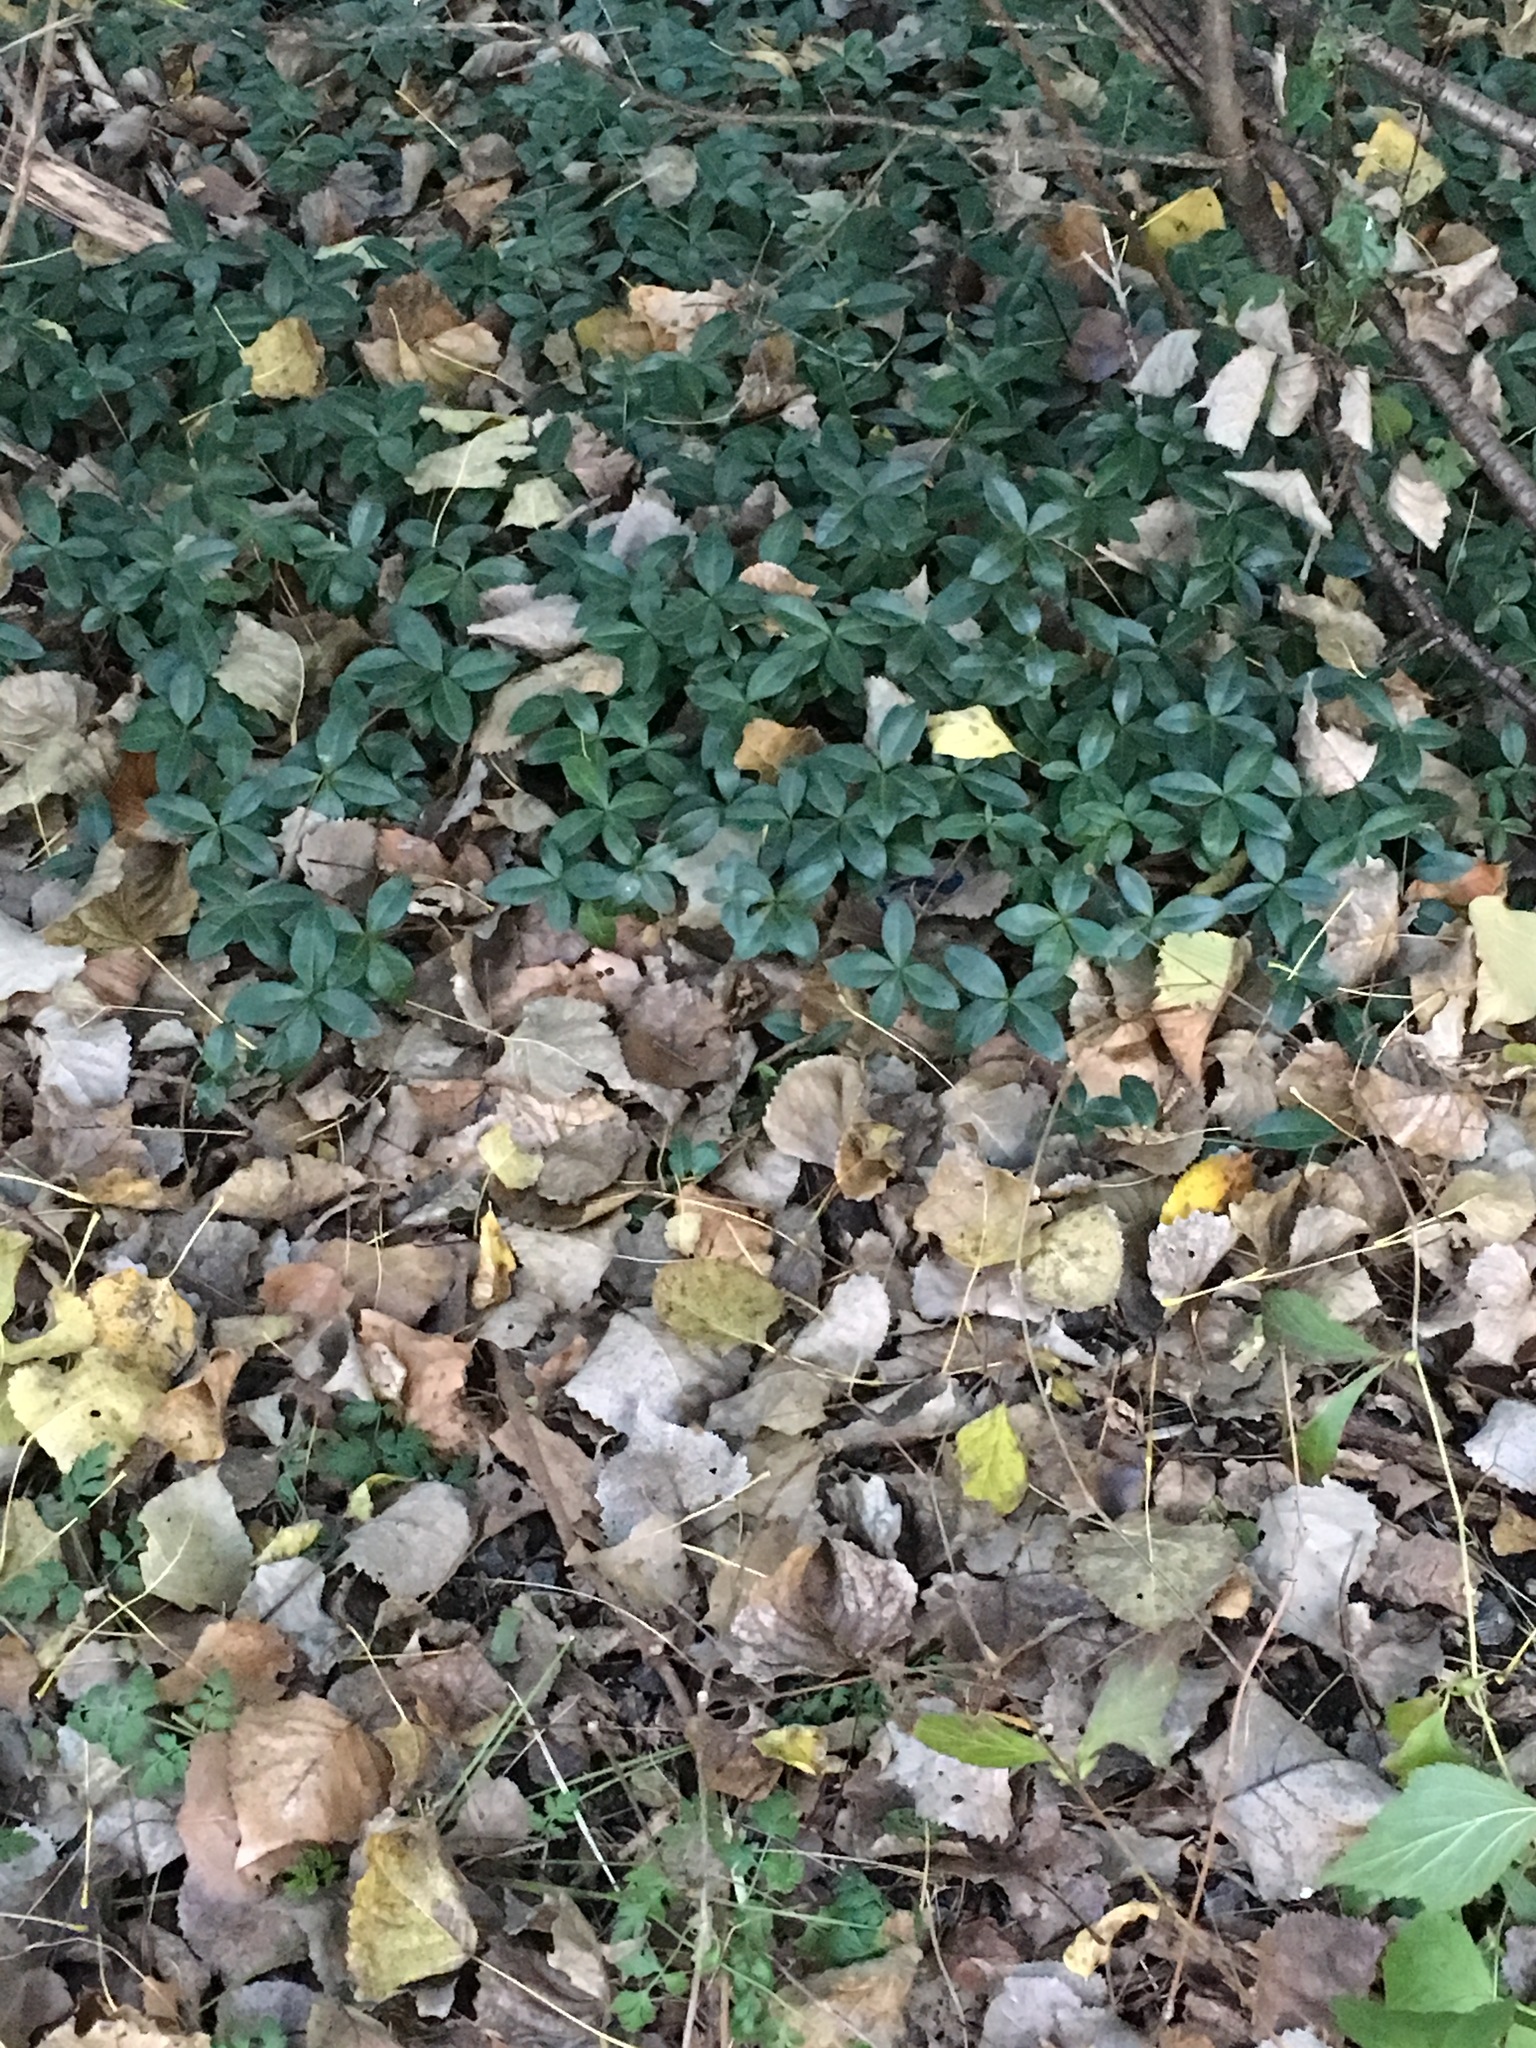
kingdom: Plantae
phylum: Tracheophyta
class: Magnoliopsida
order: Gentianales
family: Apocynaceae
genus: Vinca
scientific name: Vinca minor
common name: Lesser periwinkle
